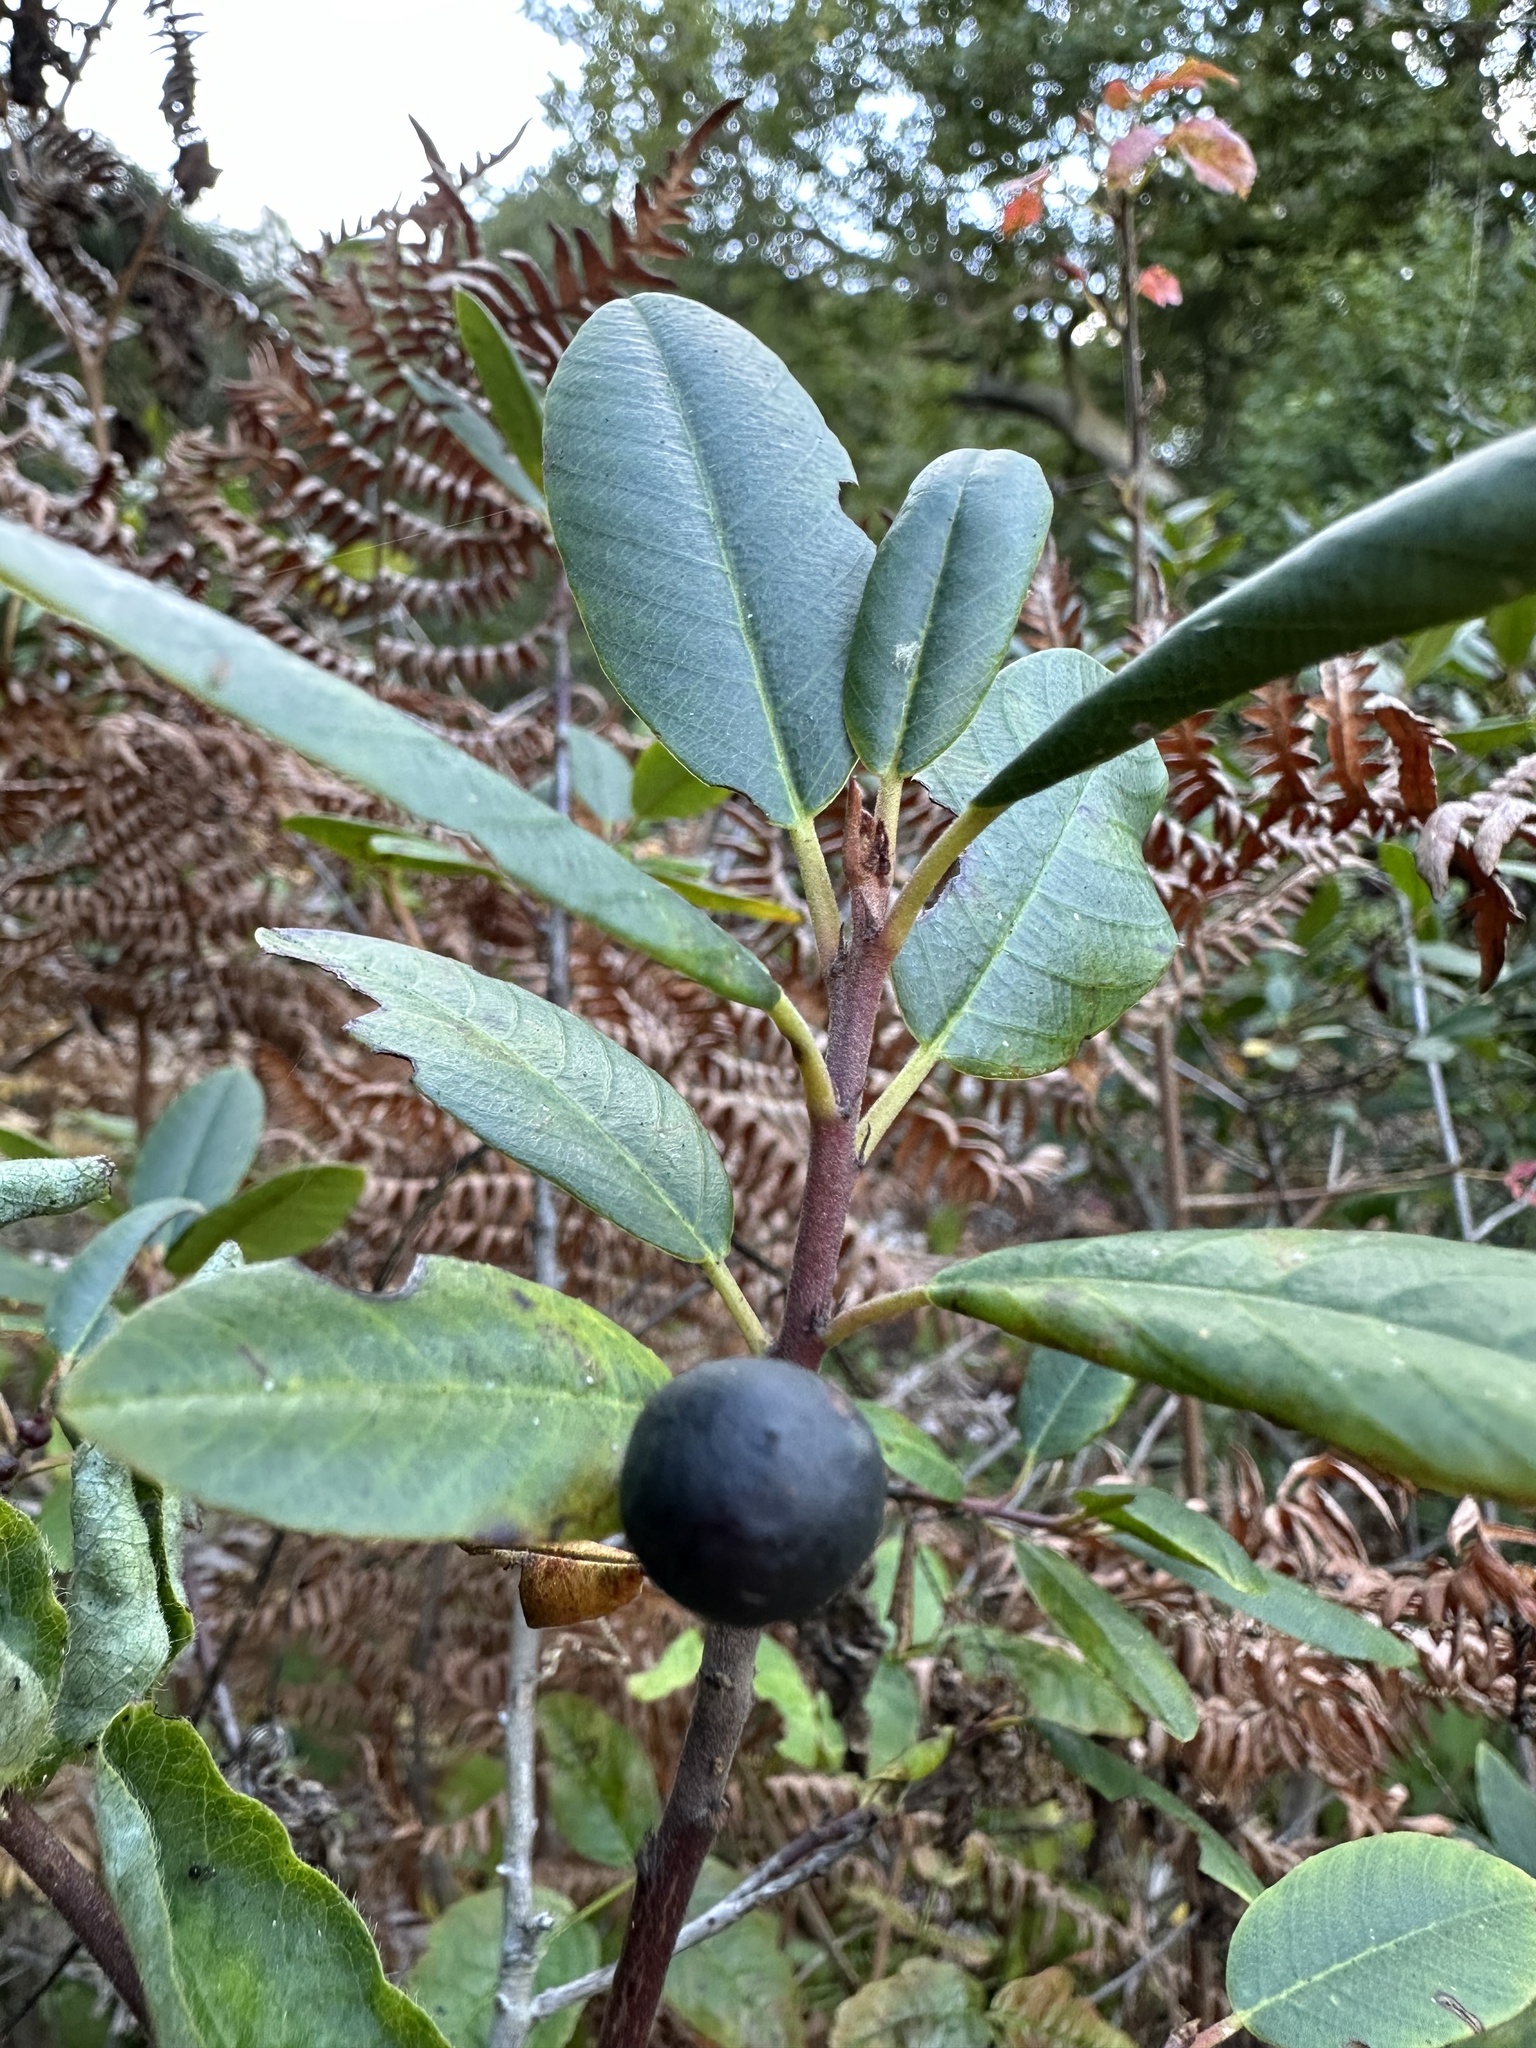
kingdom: Plantae
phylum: Tracheophyta
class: Magnoliopsida
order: Rosales
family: Rhamnaceae
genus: Frangula
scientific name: Frangula californica
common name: California buckthorn
